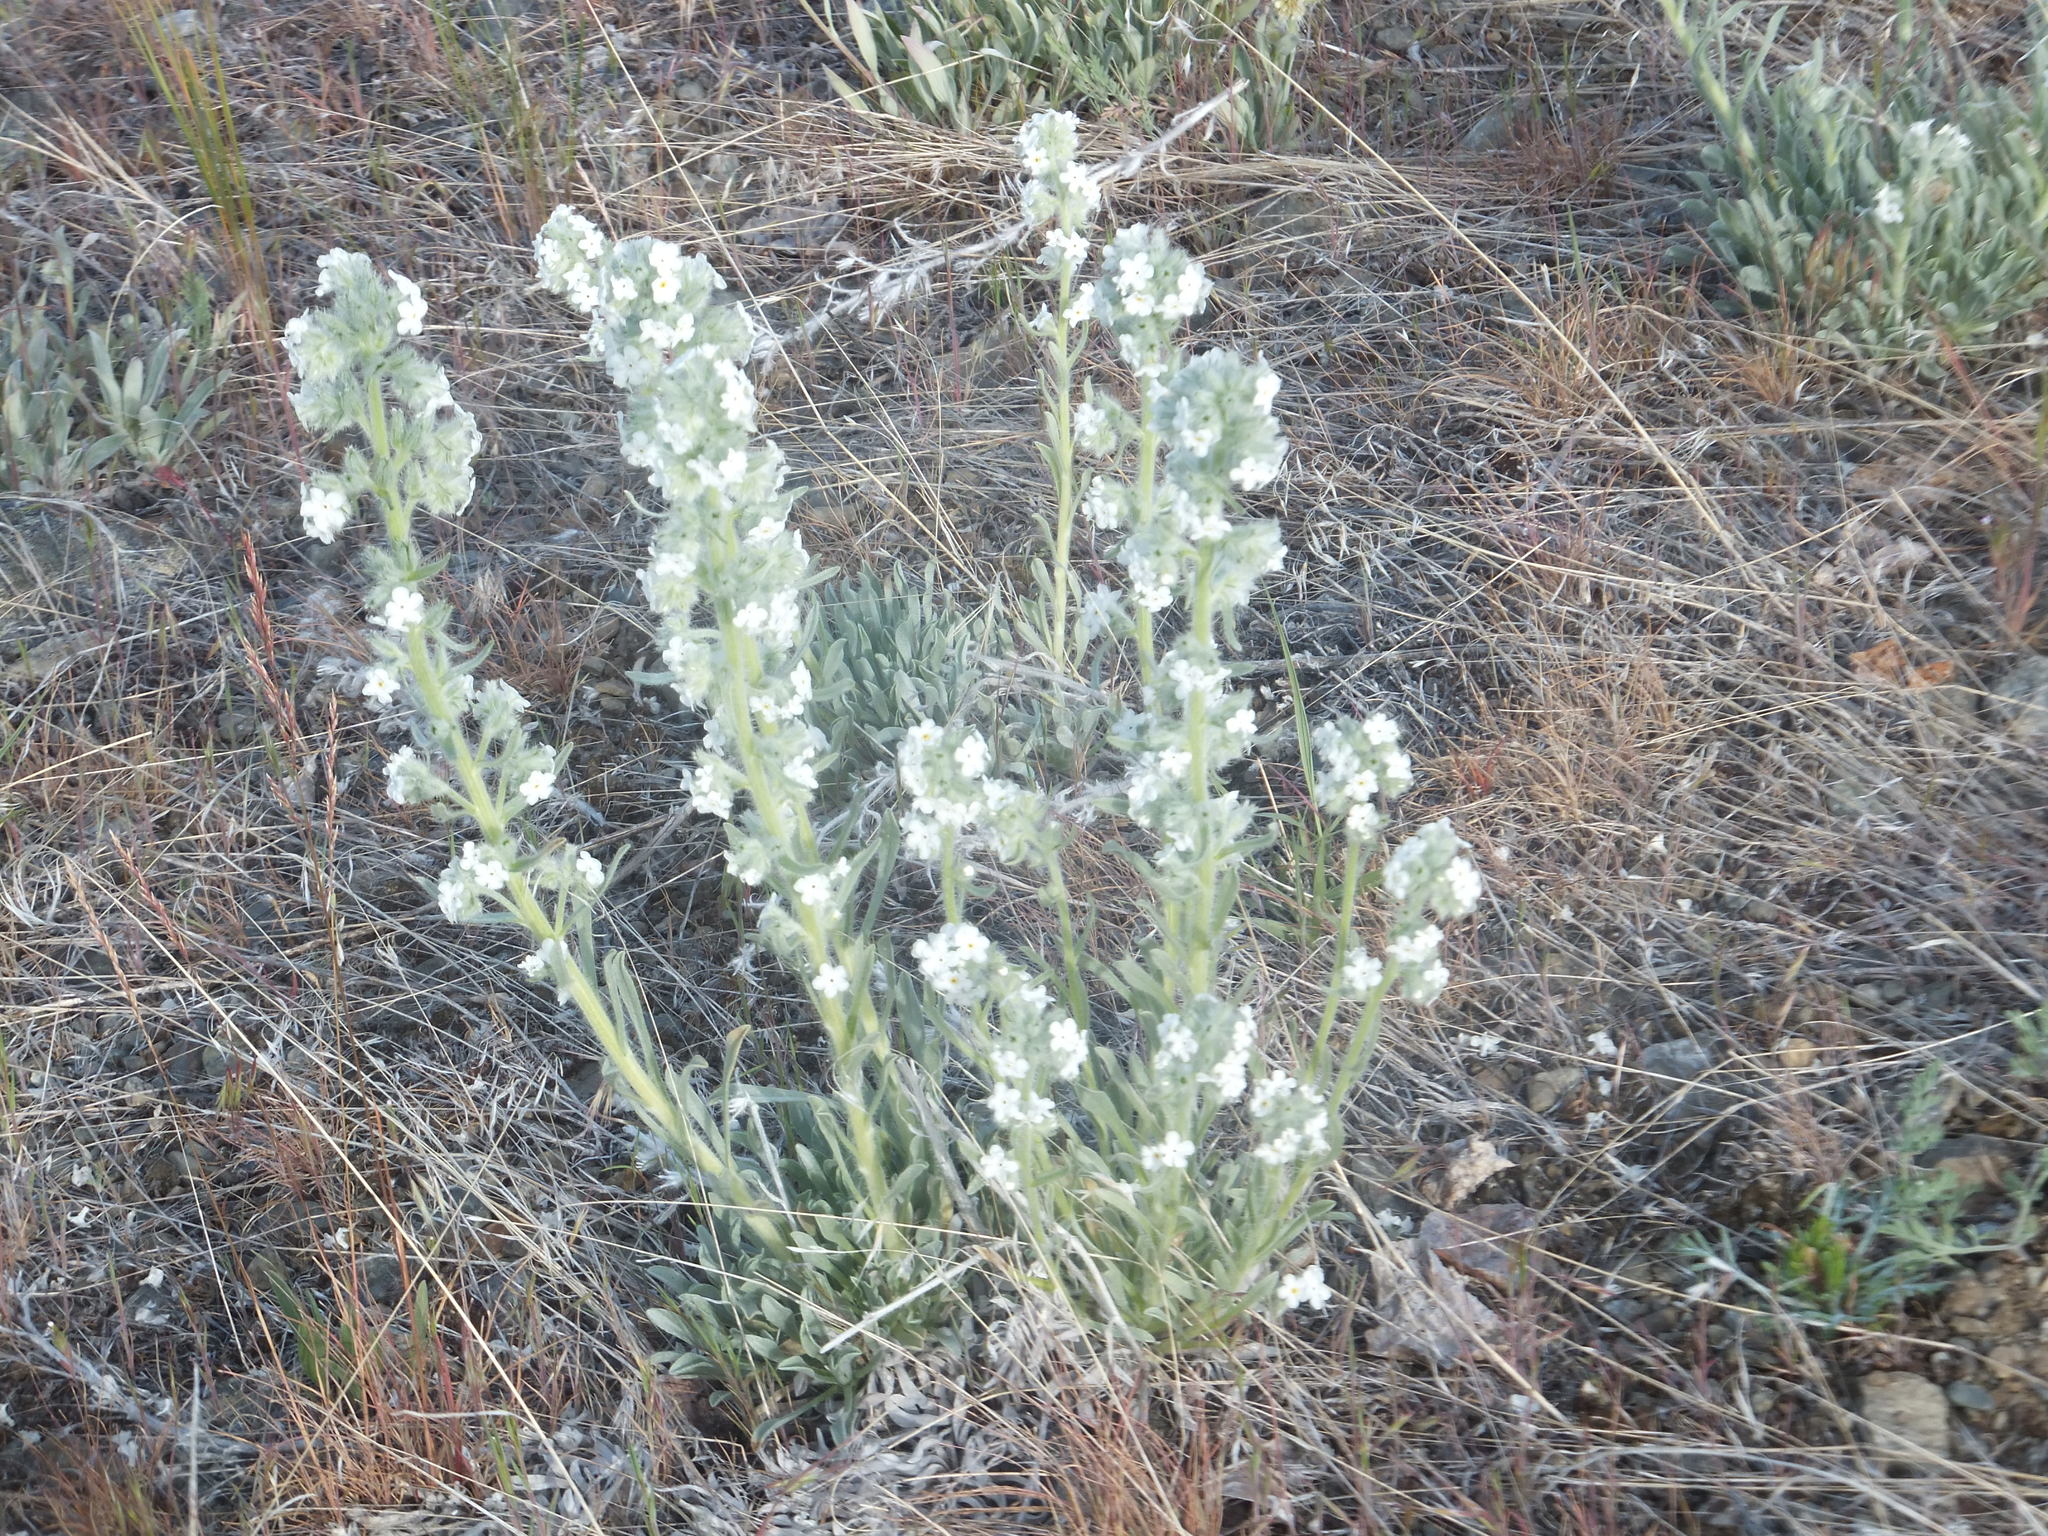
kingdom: Plantae
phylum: Tracheophyta
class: Magnoliopsida
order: Boraginales
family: Boraginaceae
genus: Oreocarya
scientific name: Oreocarya glomerata
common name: Macoun's cryptantha
